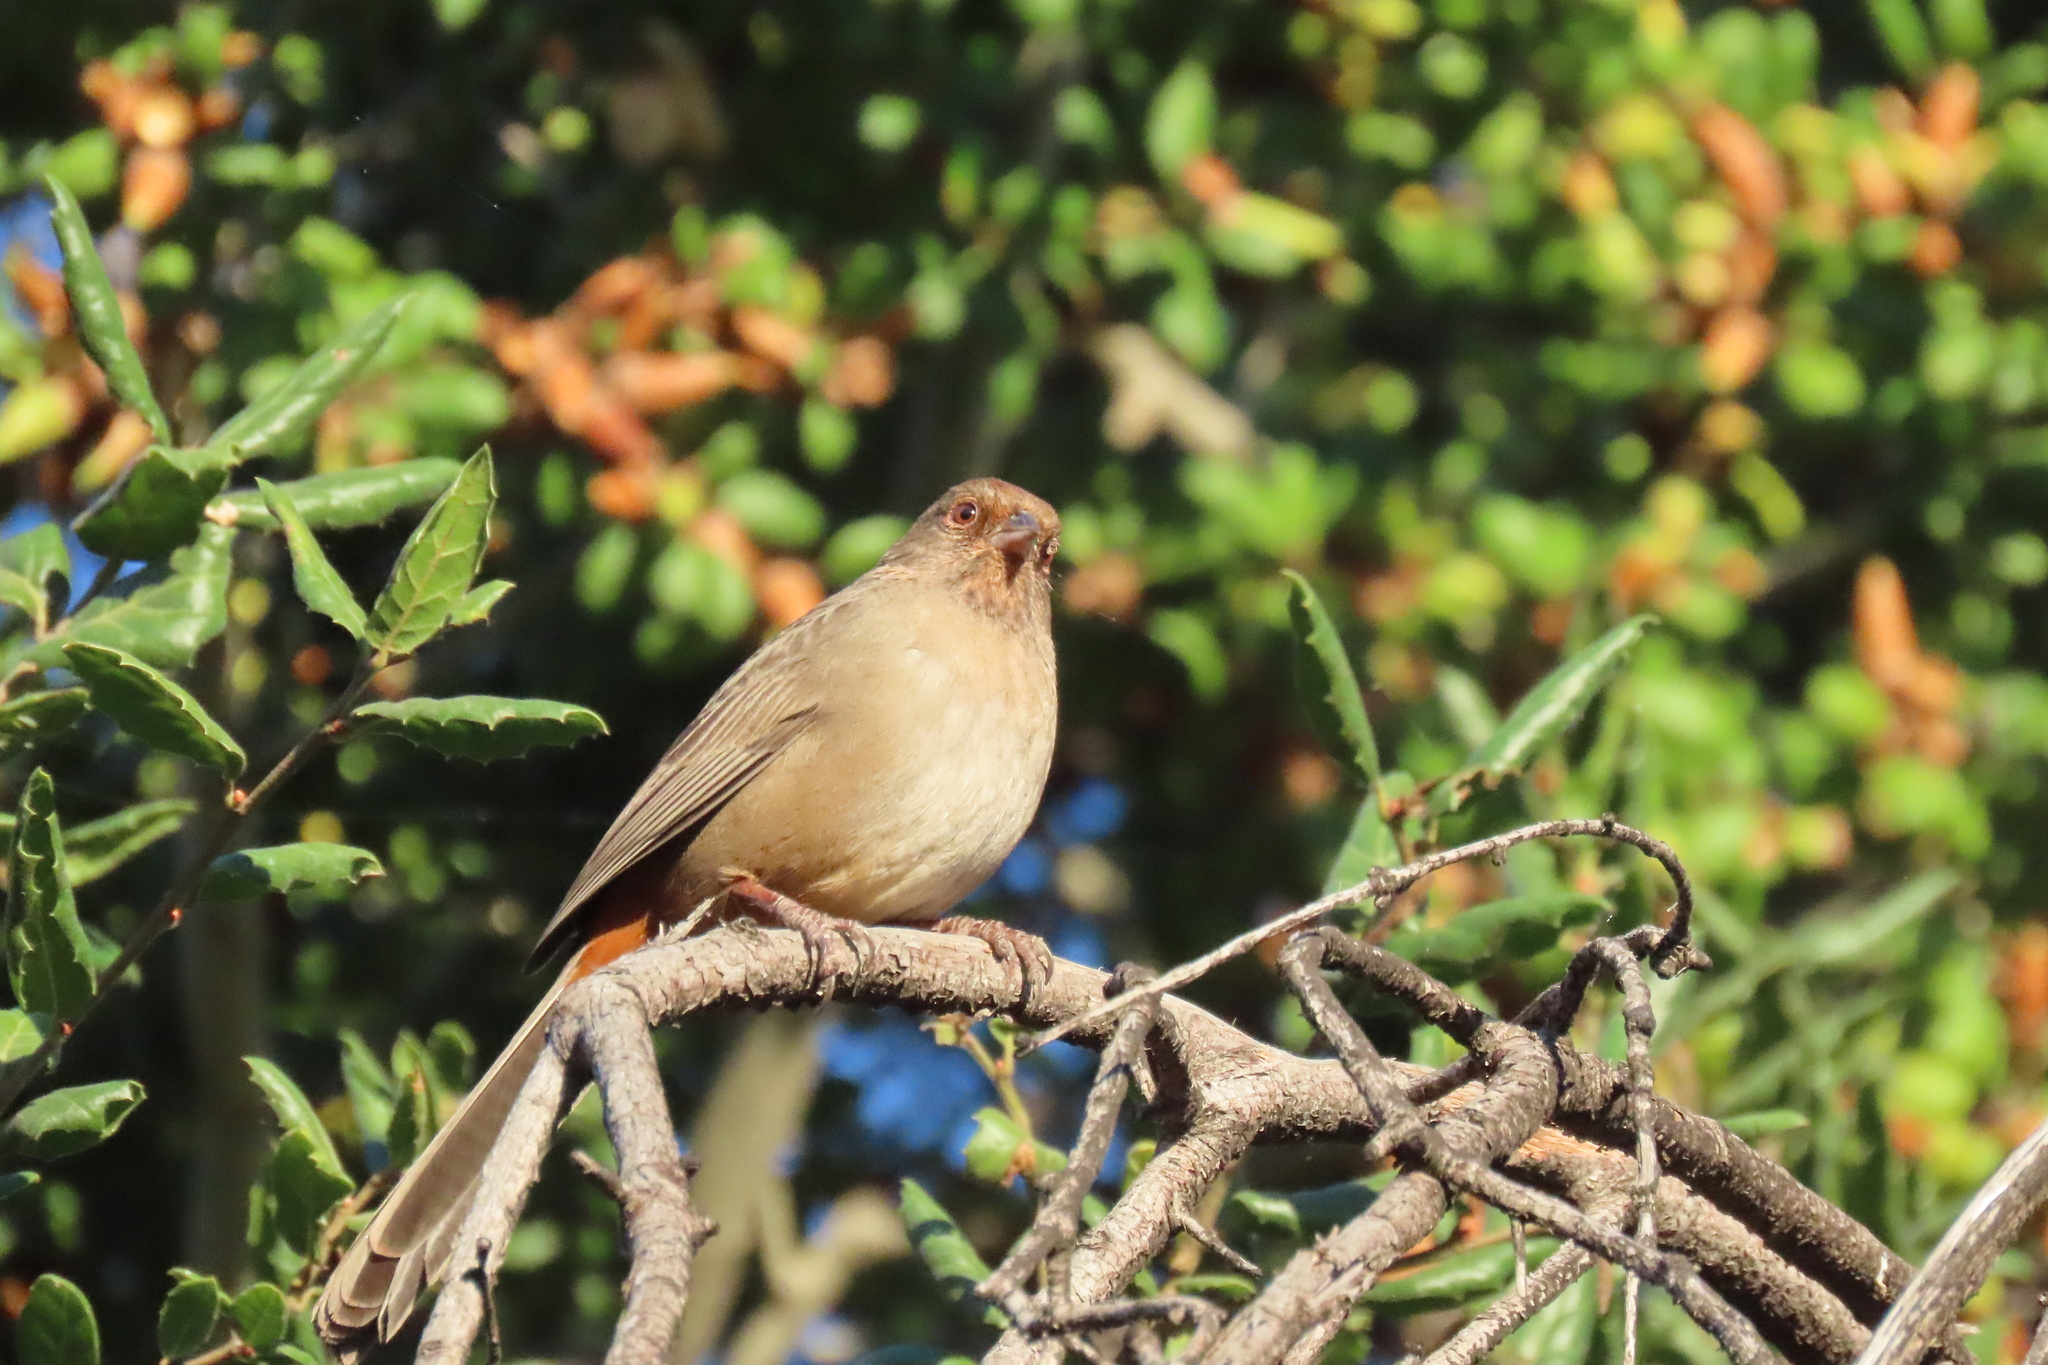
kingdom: Animalia
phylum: Chordata
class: Aves
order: Passeriformes
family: Passerellidae
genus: Melozone
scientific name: Melozone crissalis
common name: California towhee
